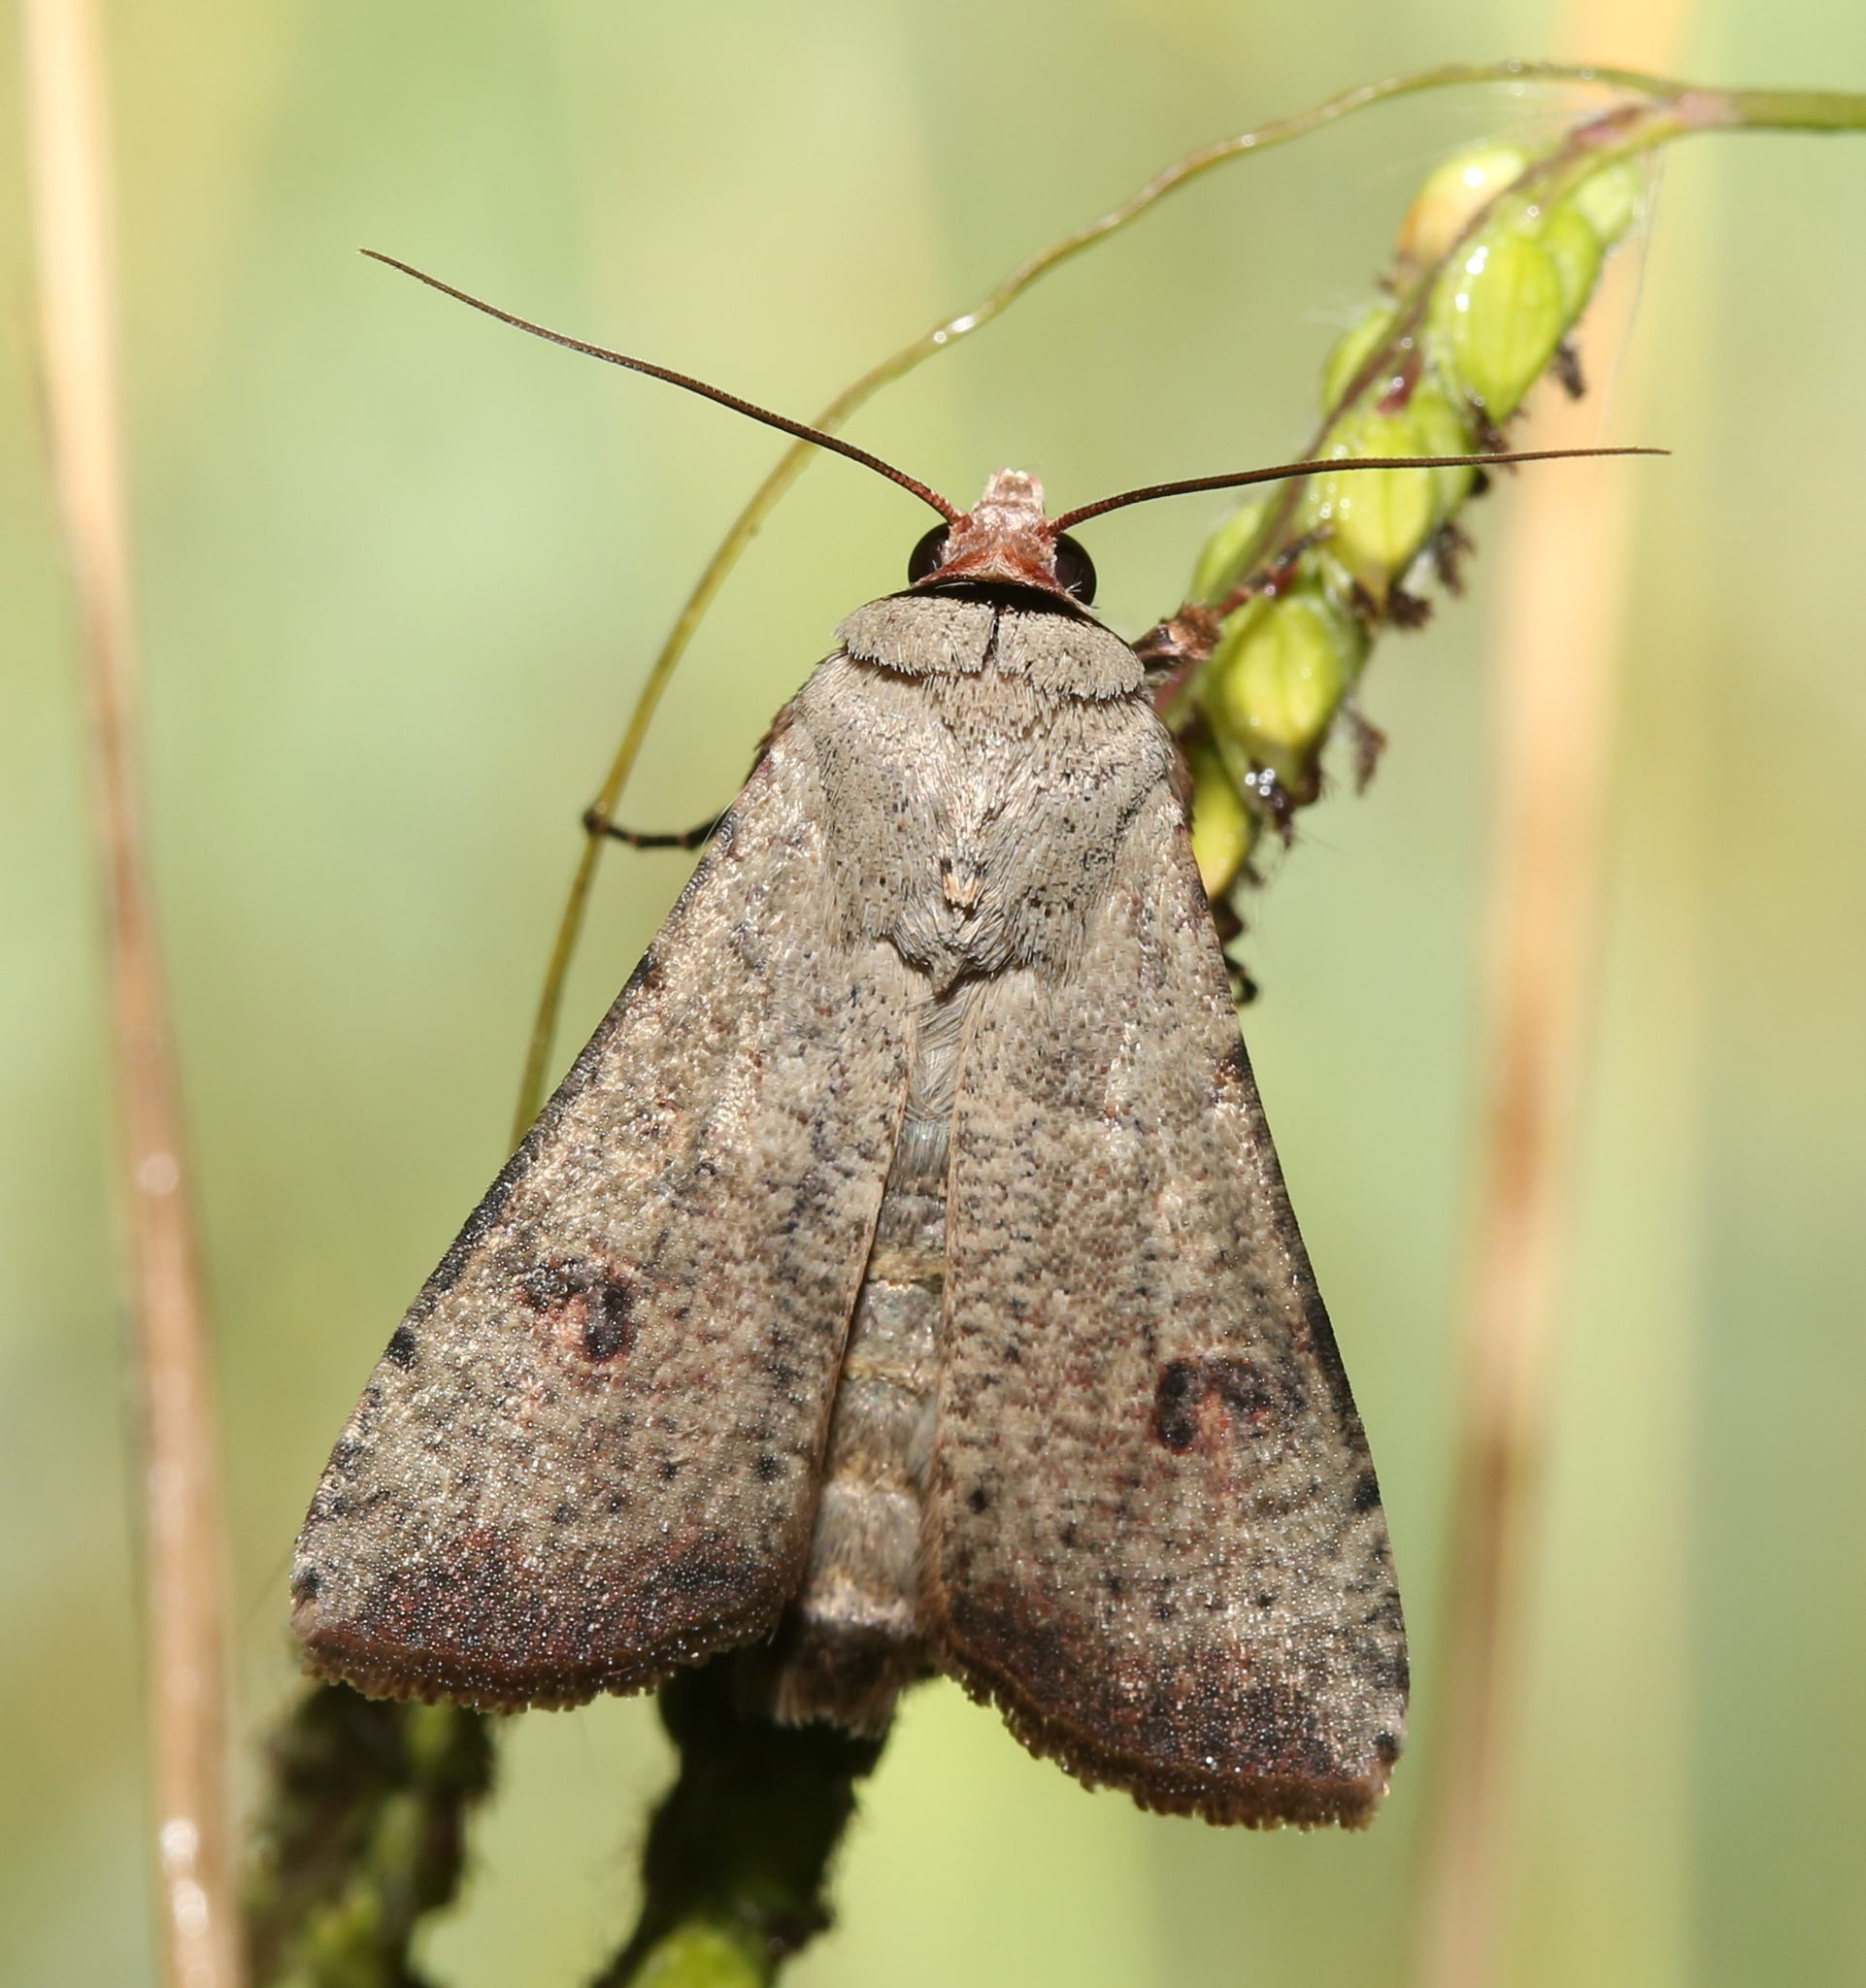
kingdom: Animalia
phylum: Arthropoda
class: Insecta
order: Lepidoptera
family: Noctuidae
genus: Anicla
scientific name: Anicla infecta
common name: Green cutworm
